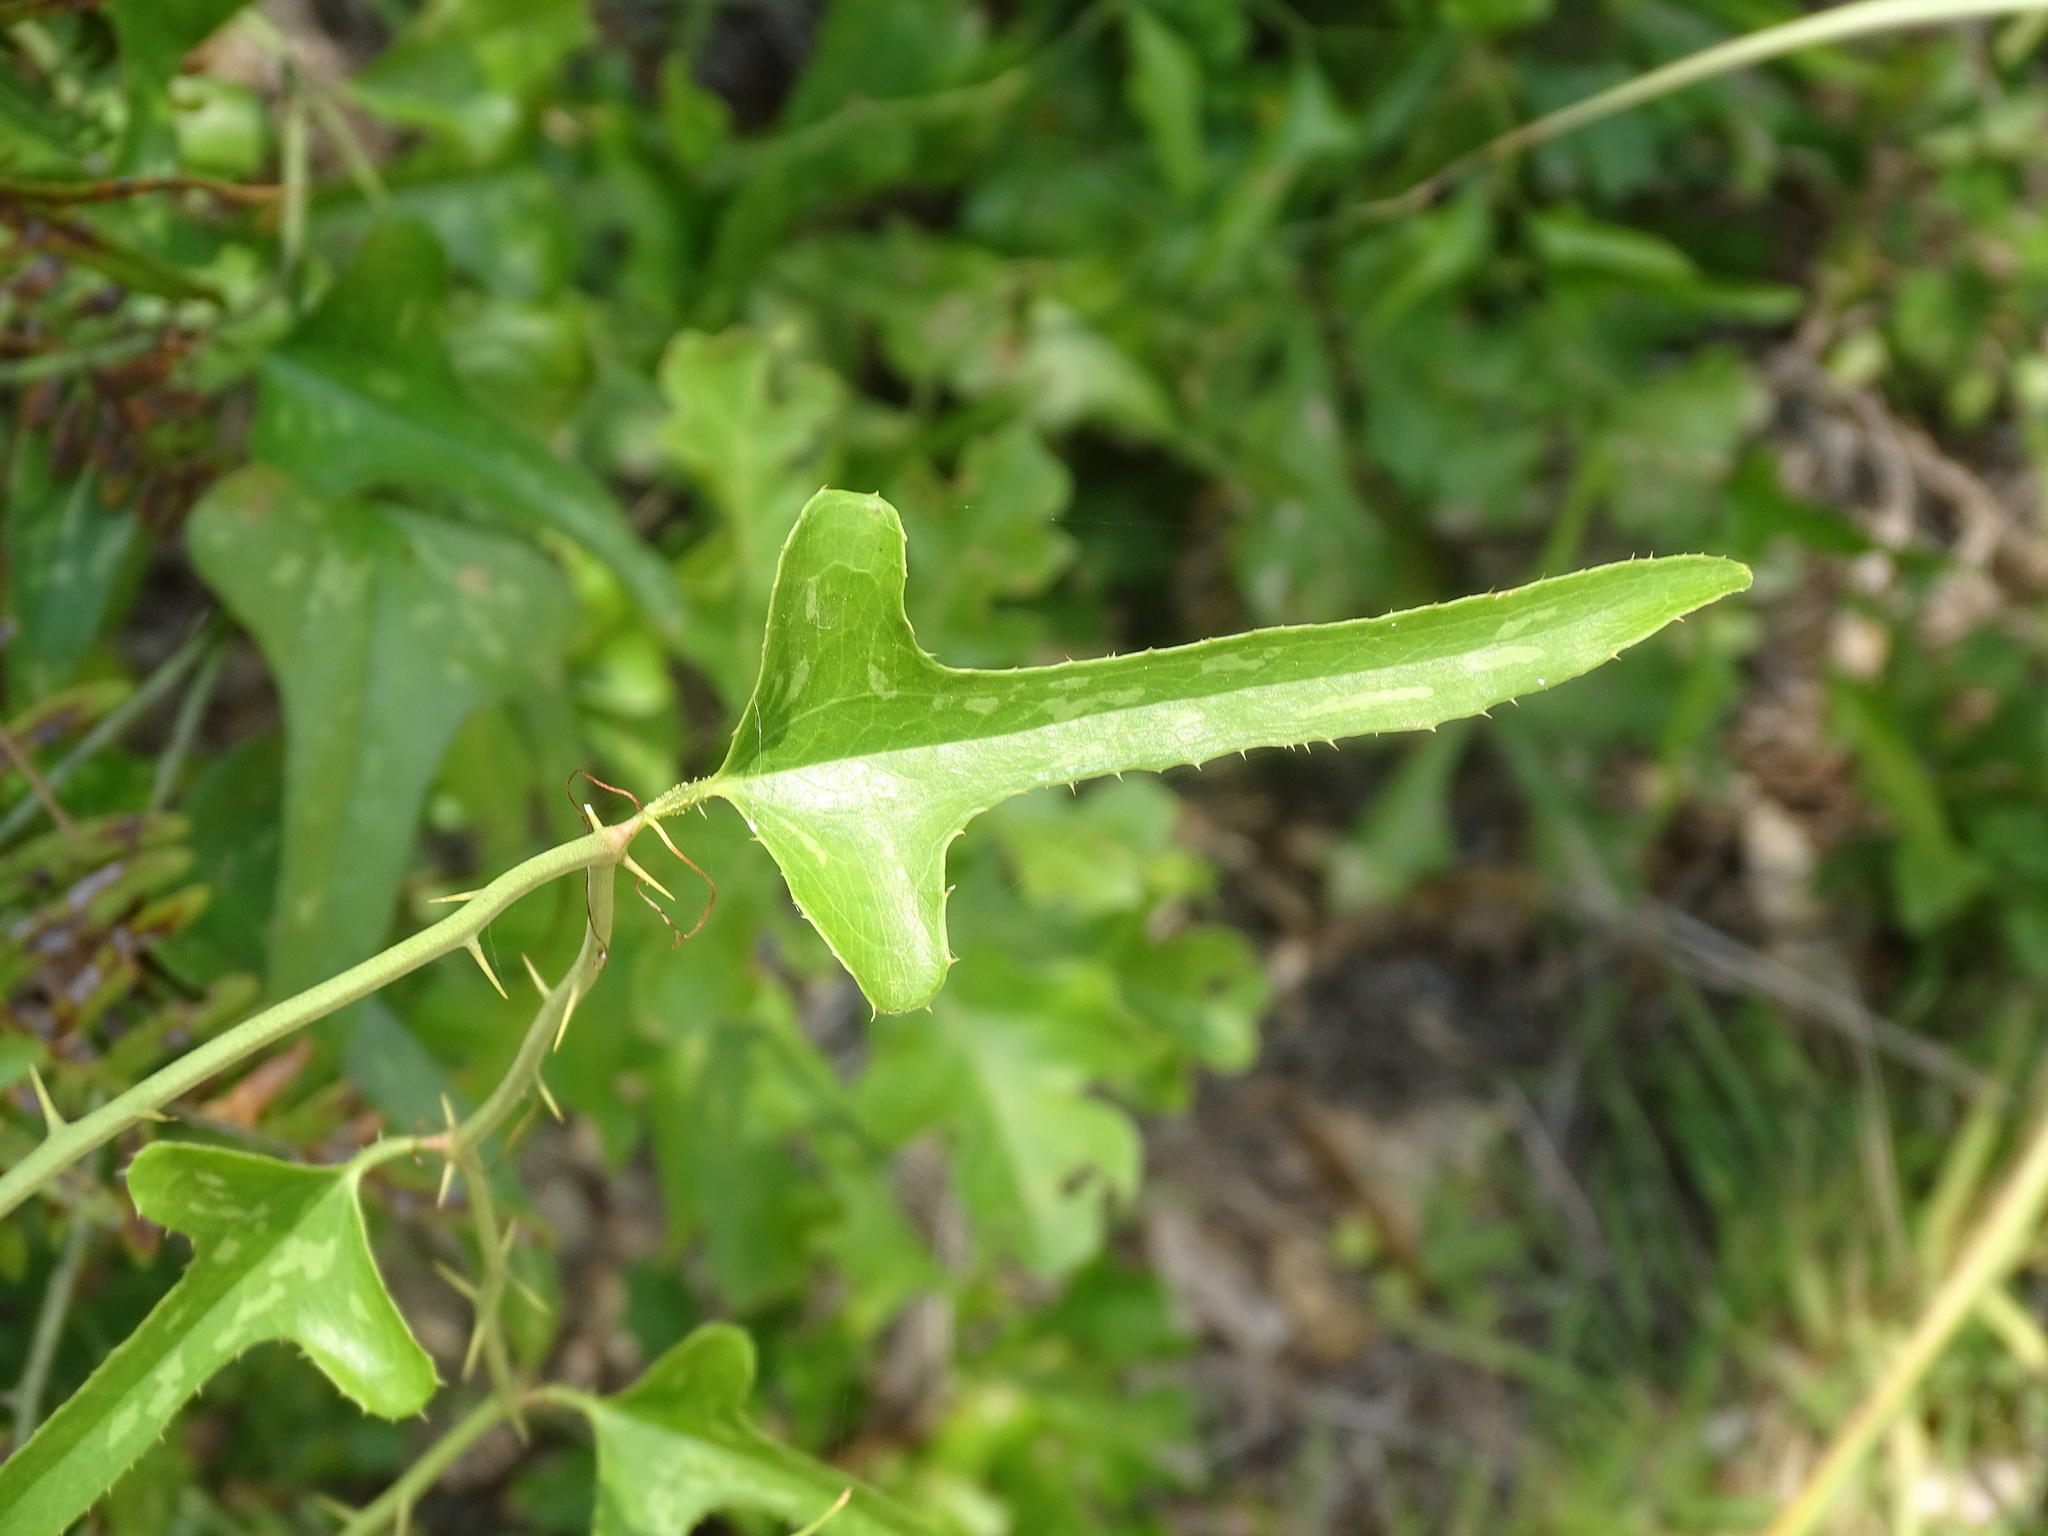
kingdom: Plantae
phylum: Tracheophyta
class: Liliopsida
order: Liliales
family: Smilacaceae
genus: Smilax
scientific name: Smilax bona-nox
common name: Catbrier
